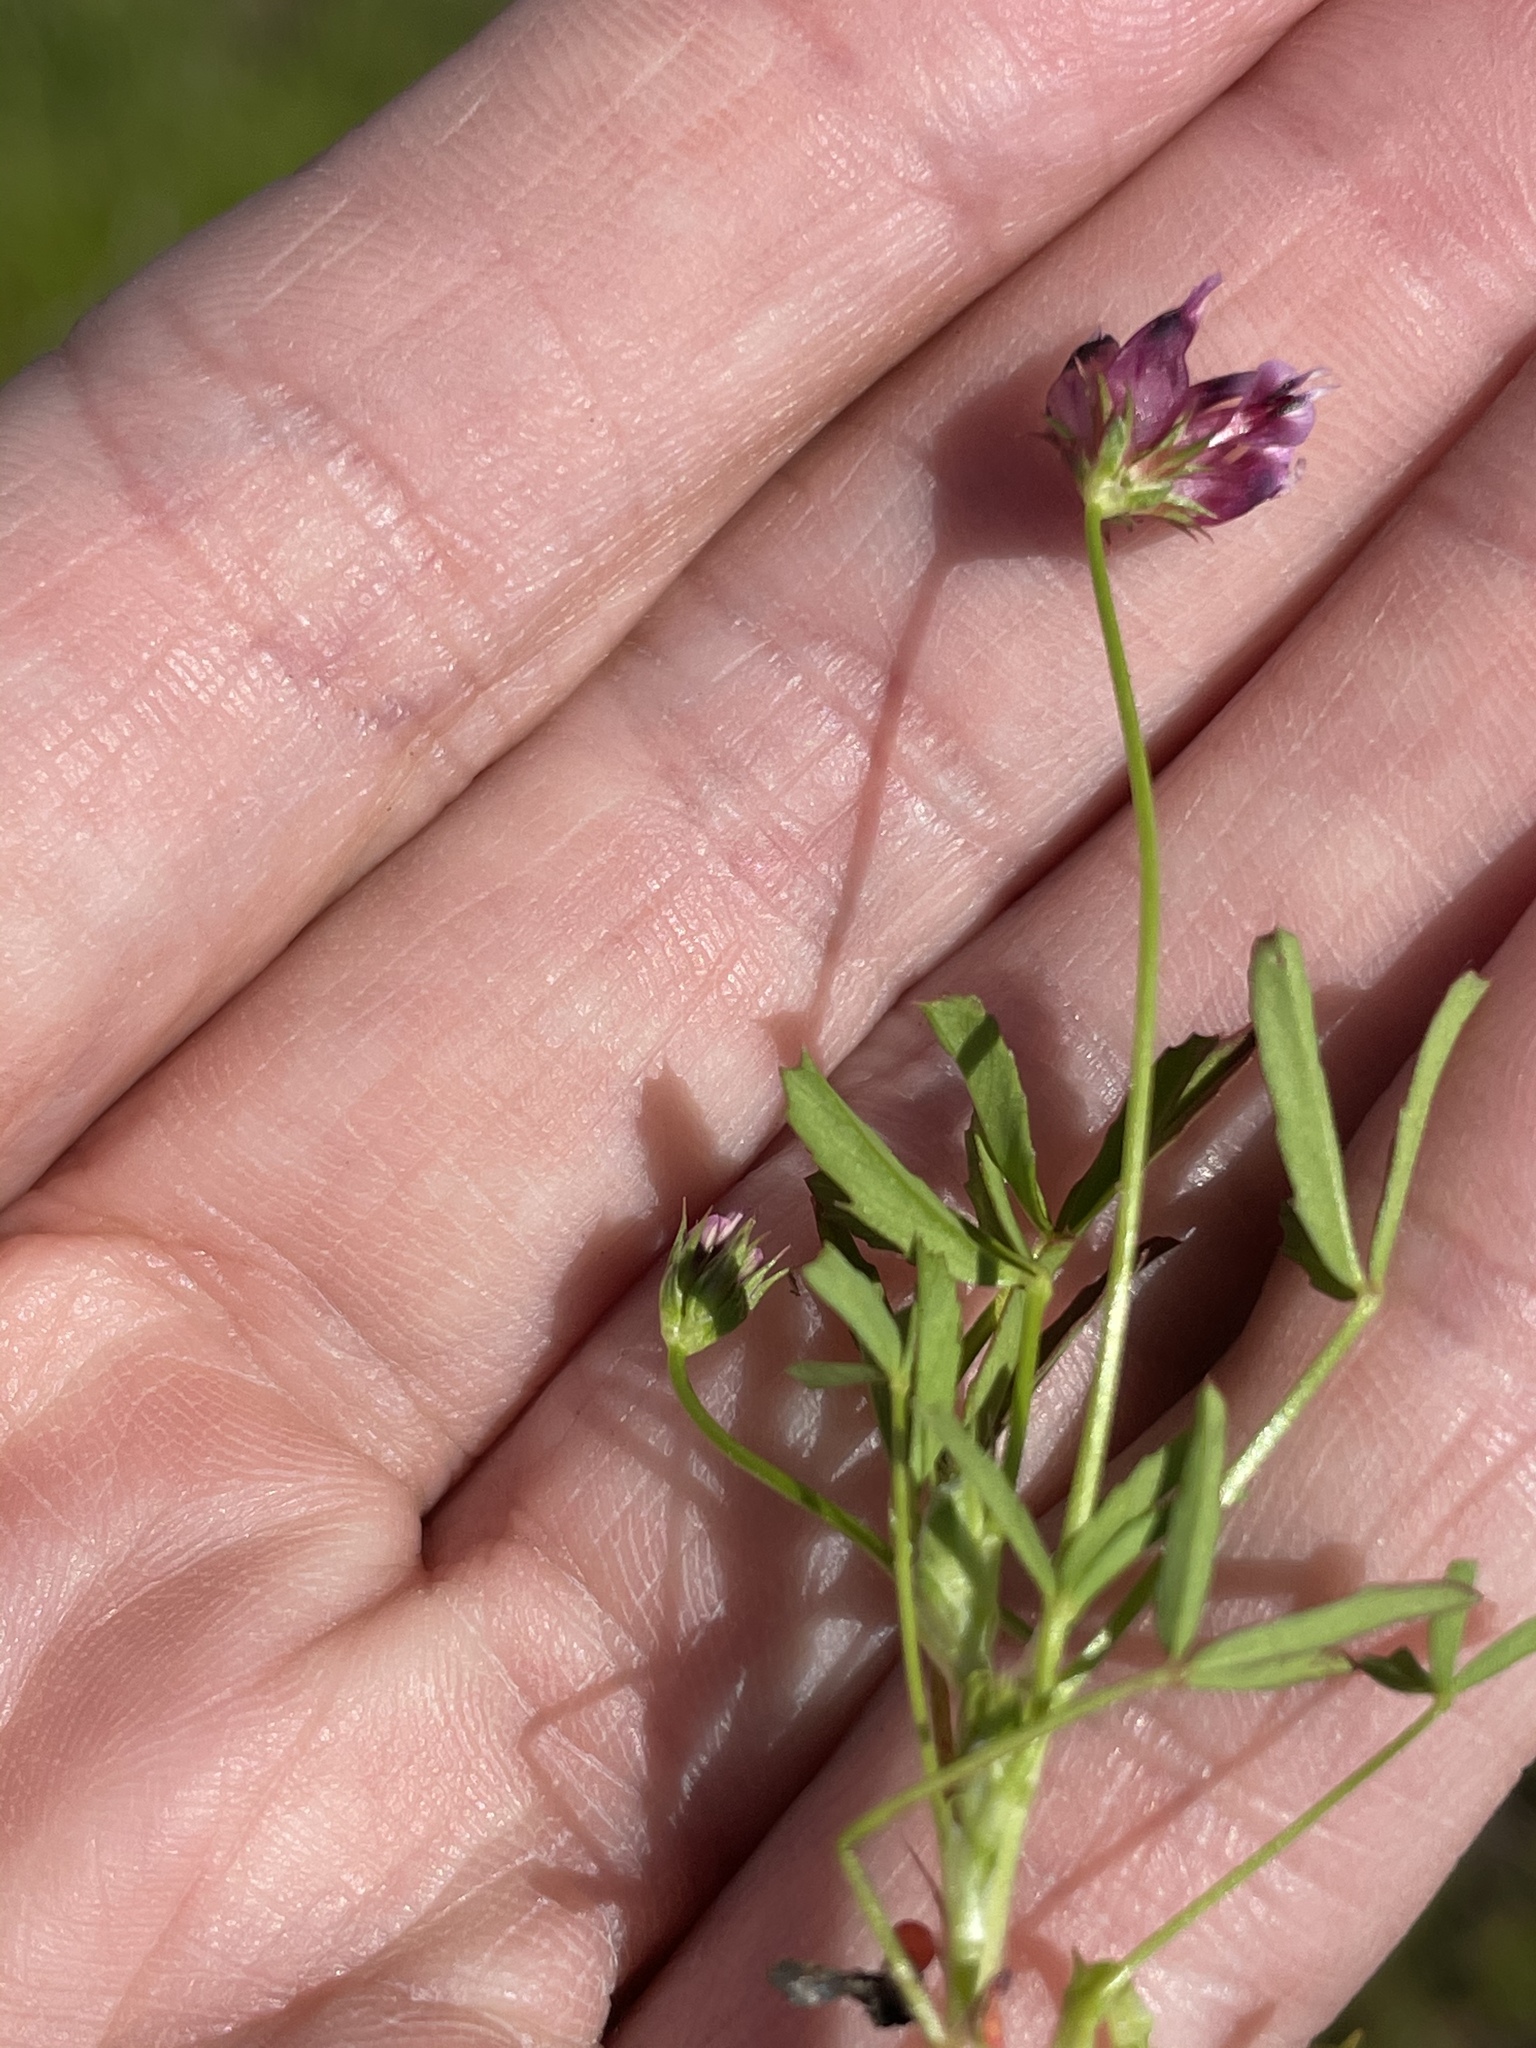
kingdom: Plantae
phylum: Tracheophyta
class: Magnoliopsida
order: Fabales
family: Fabaceae
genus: Trifolium
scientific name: Trifolium depauperatum
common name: Poverty clover
